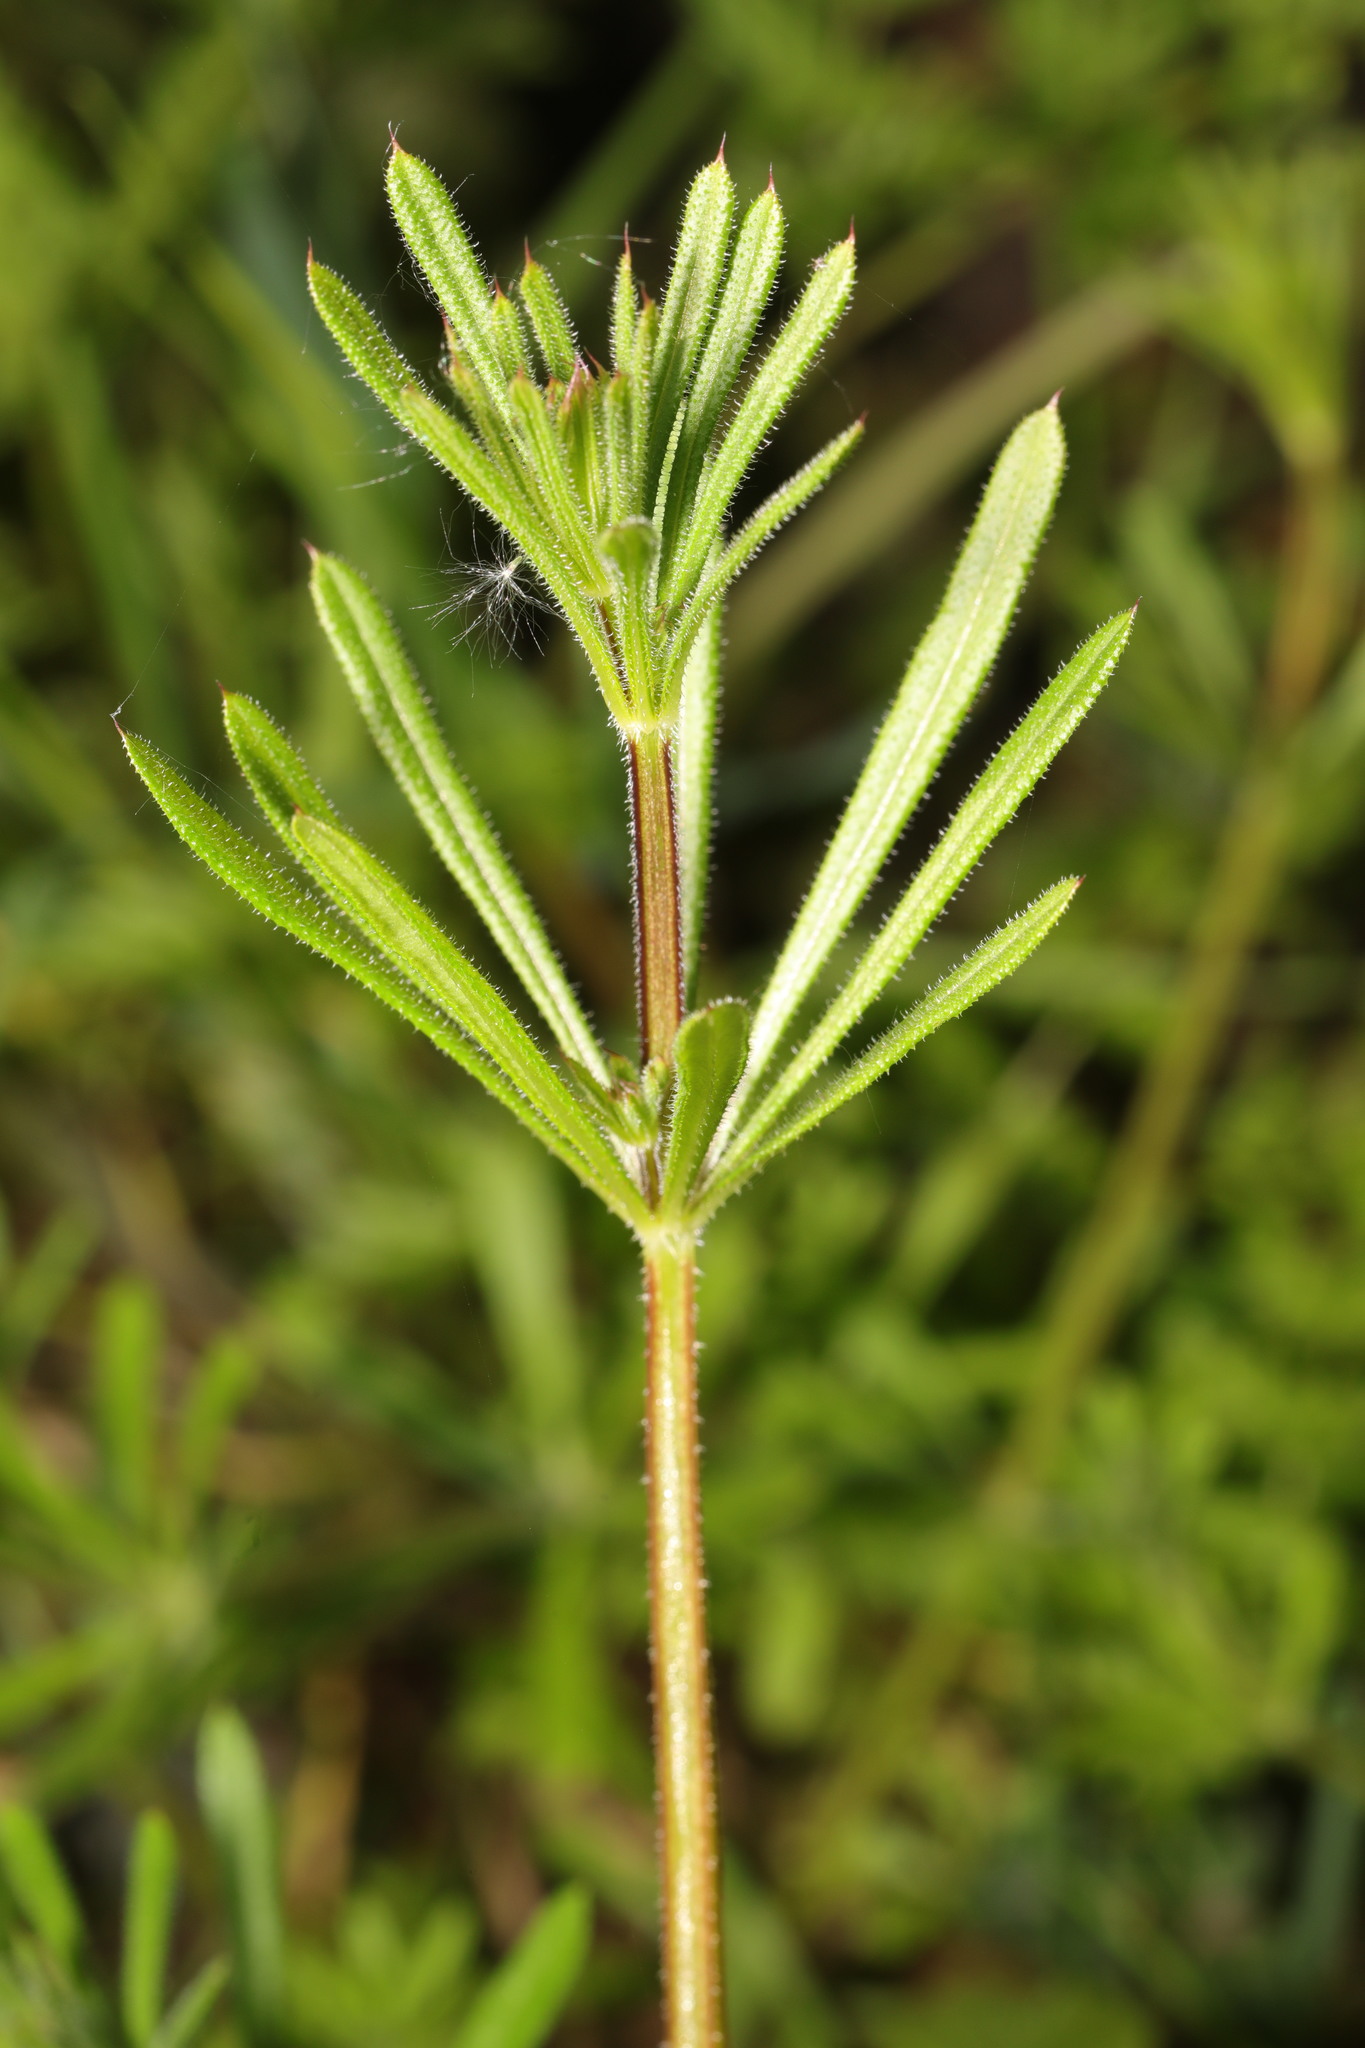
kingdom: Plantae
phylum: Tracheophyta
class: Magnoliopsida
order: Gentianales
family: Rubiaceae
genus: Galium
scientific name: Galium aparine
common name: Cleavers
